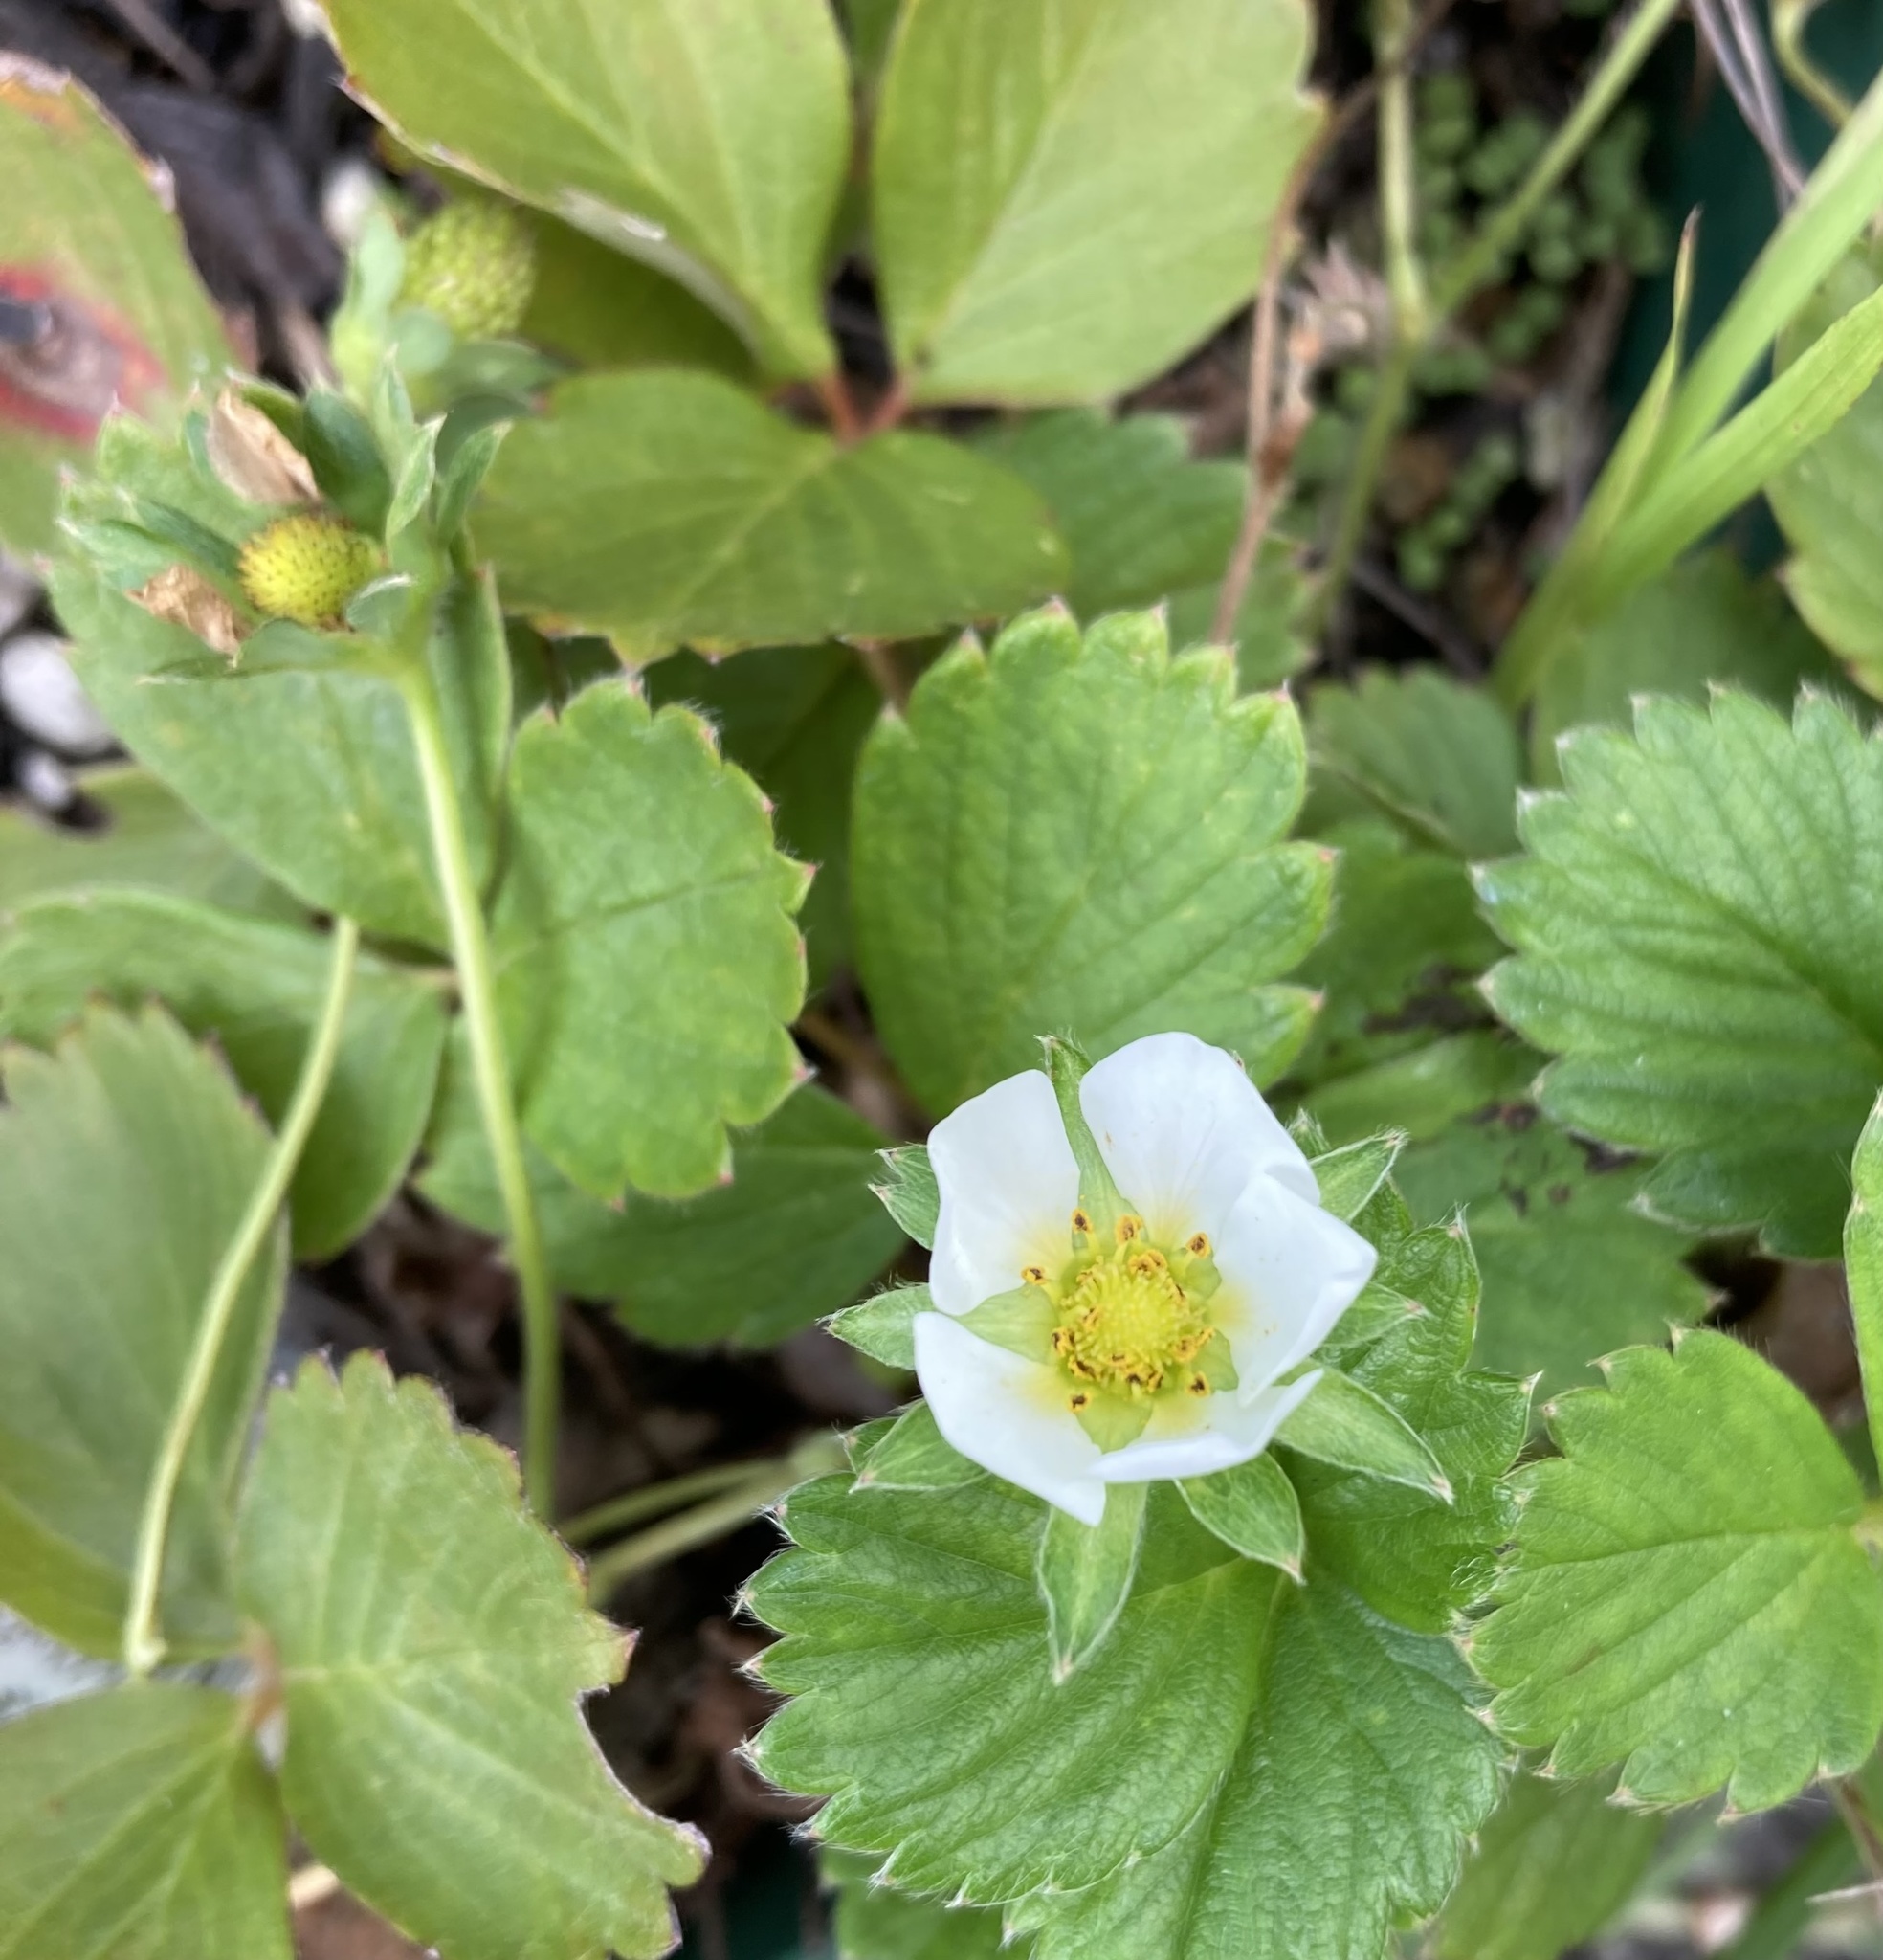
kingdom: Plantae
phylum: Tracheophyta
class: Magnoliopsida
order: Rosales
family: Rosaceae
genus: Fragaria
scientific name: Fragaria ananassa
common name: Garden strawberry
